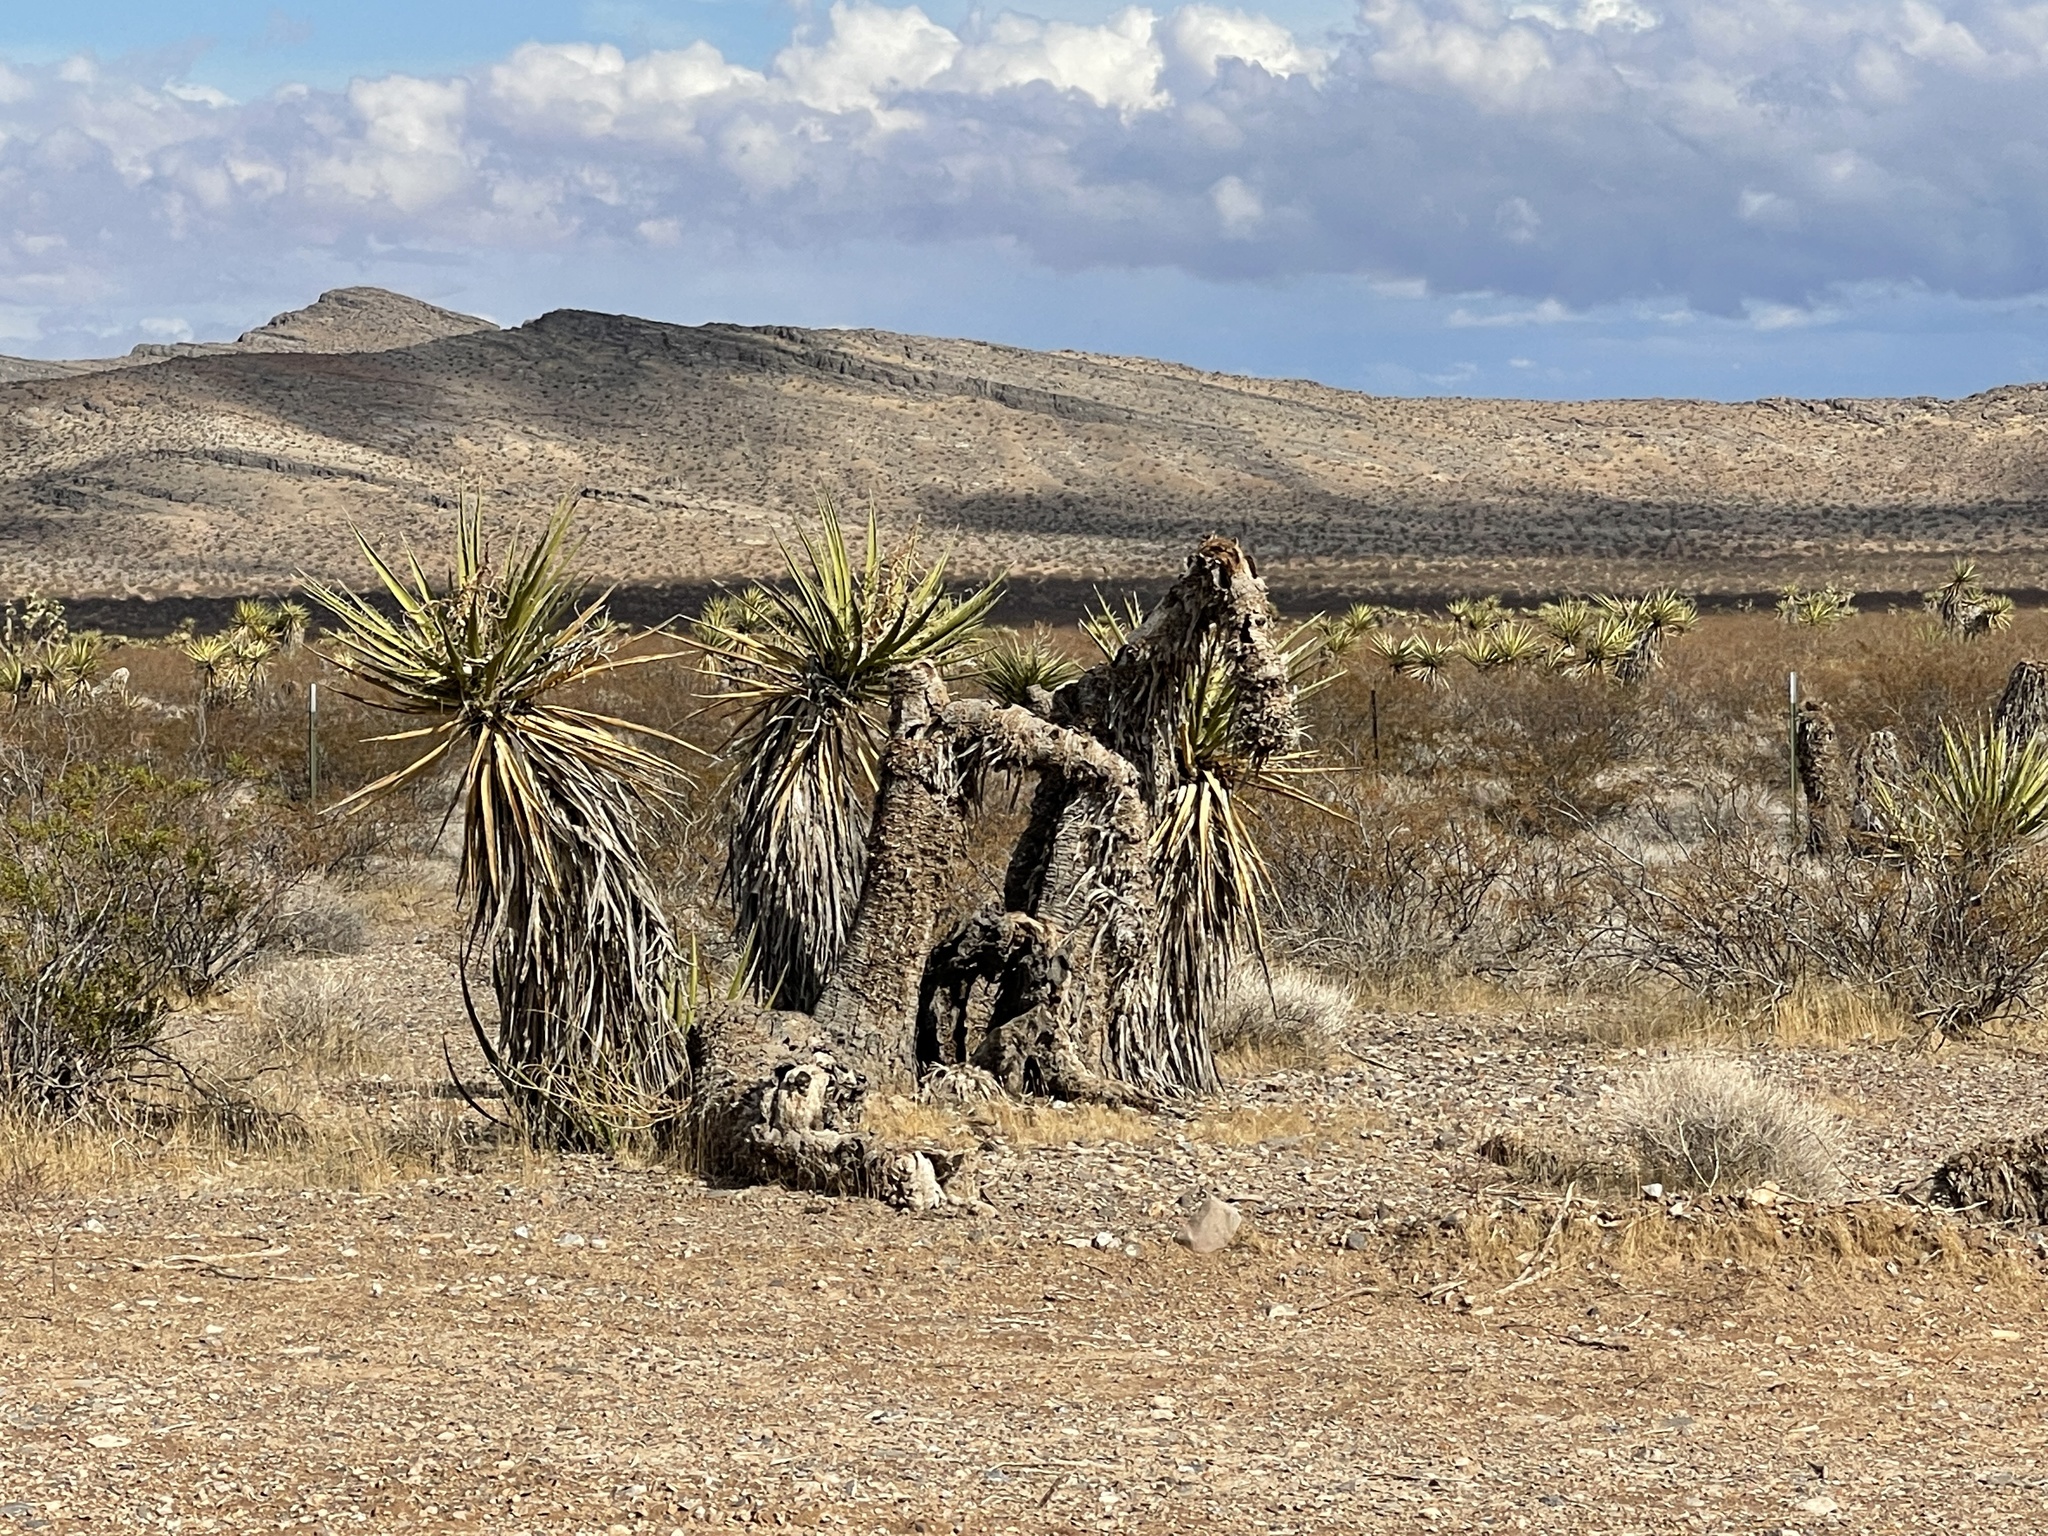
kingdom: Plantae
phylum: Tracheophyta
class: Liliopsida
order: Asparagales
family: Asparagaceae
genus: Yucca
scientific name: Yucca schidigera
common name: Mojave yucca
